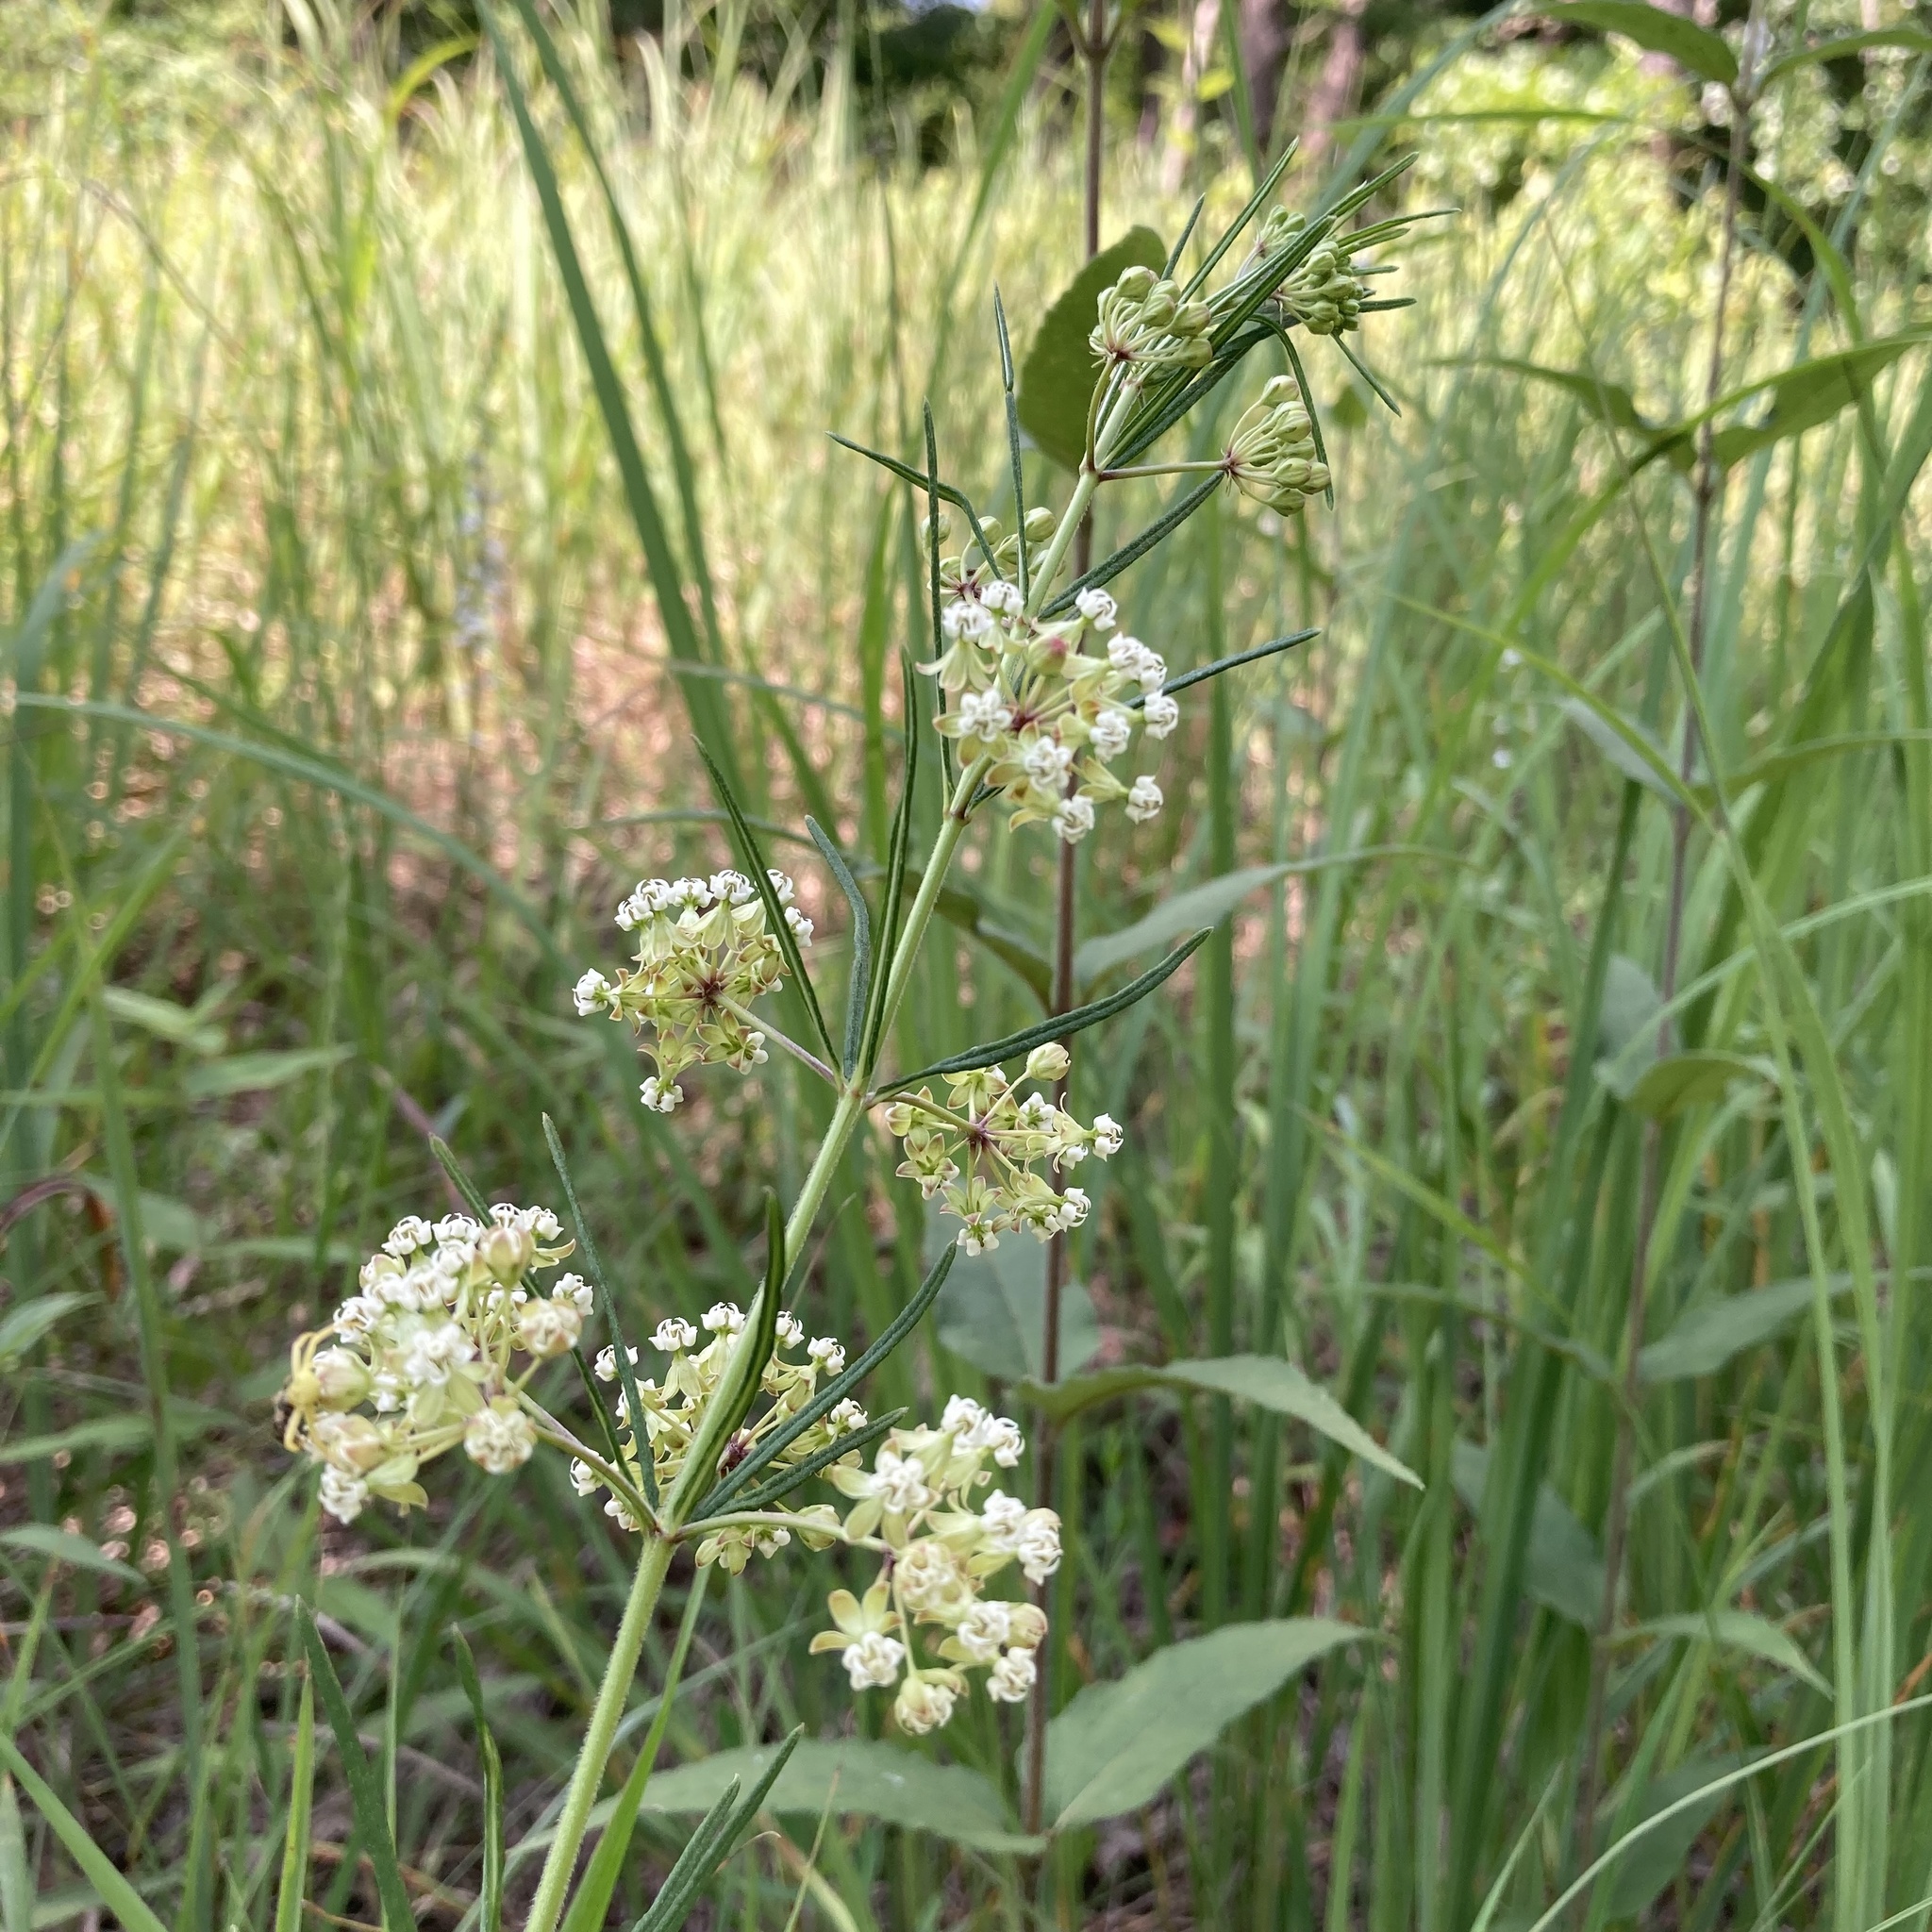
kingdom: Plantae
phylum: Tracheophyta
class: Magnoliopsida
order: Gentianales
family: Apocynaceae
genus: Asclepias
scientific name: Asclepias verticillata
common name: Eastern whorled milkweed
